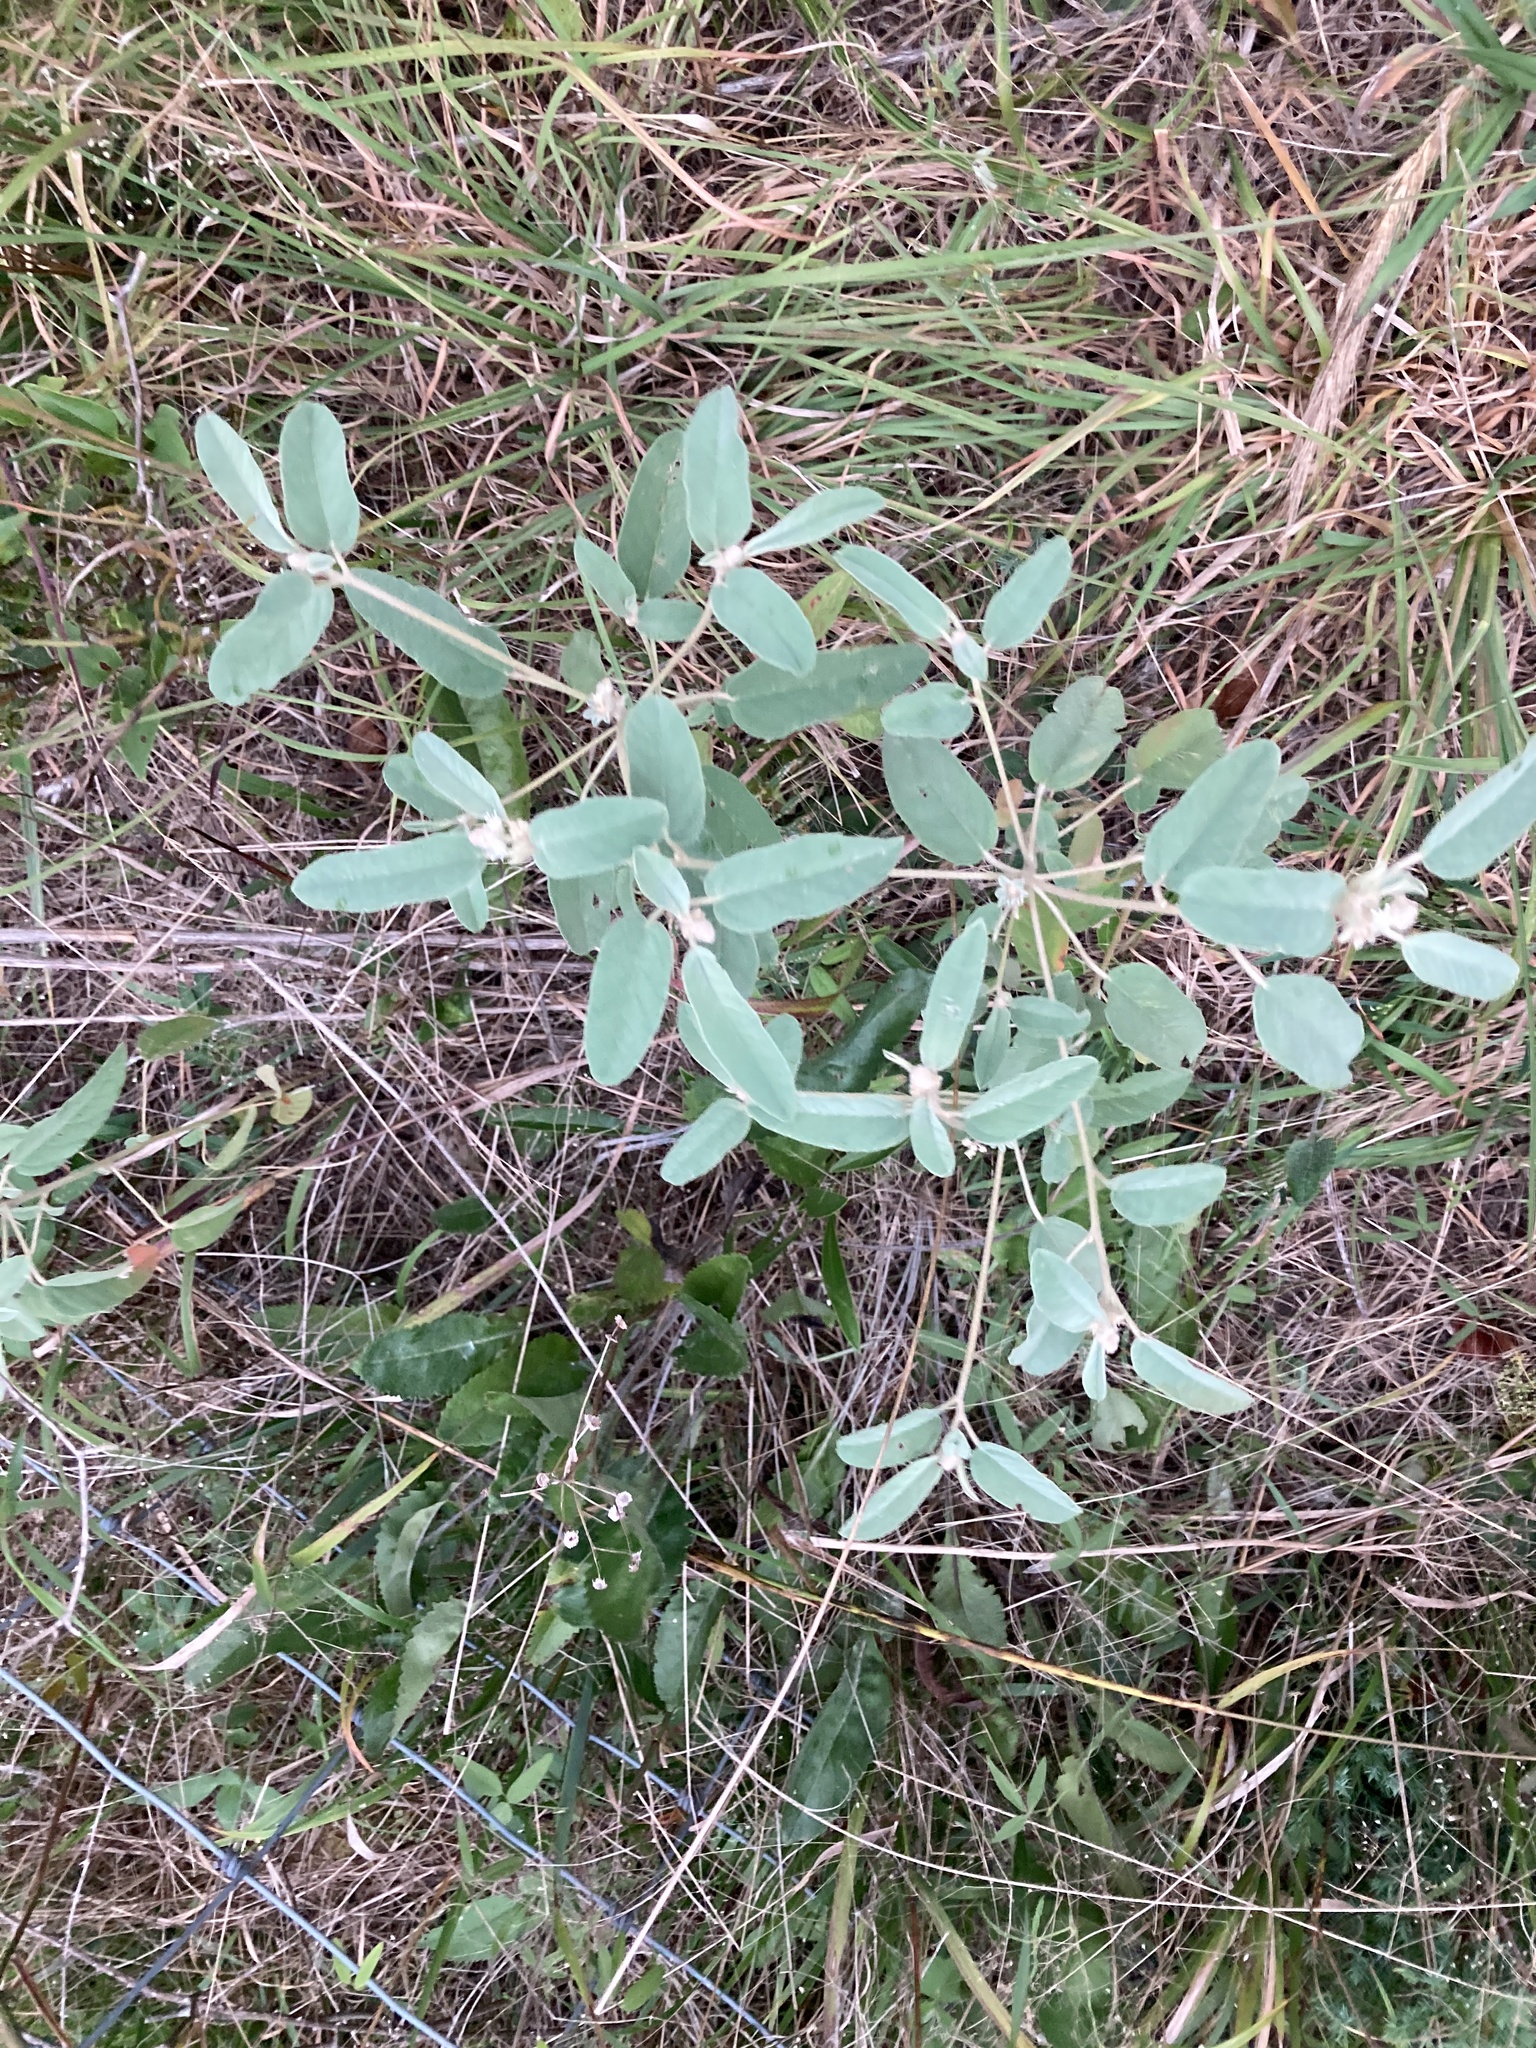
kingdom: Plantae
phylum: Tracheophyta
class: Magnoliopsida
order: Malpighiales
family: Euphorbiaceae
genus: Croton
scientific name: Croton capitatus
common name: Woolly croton
